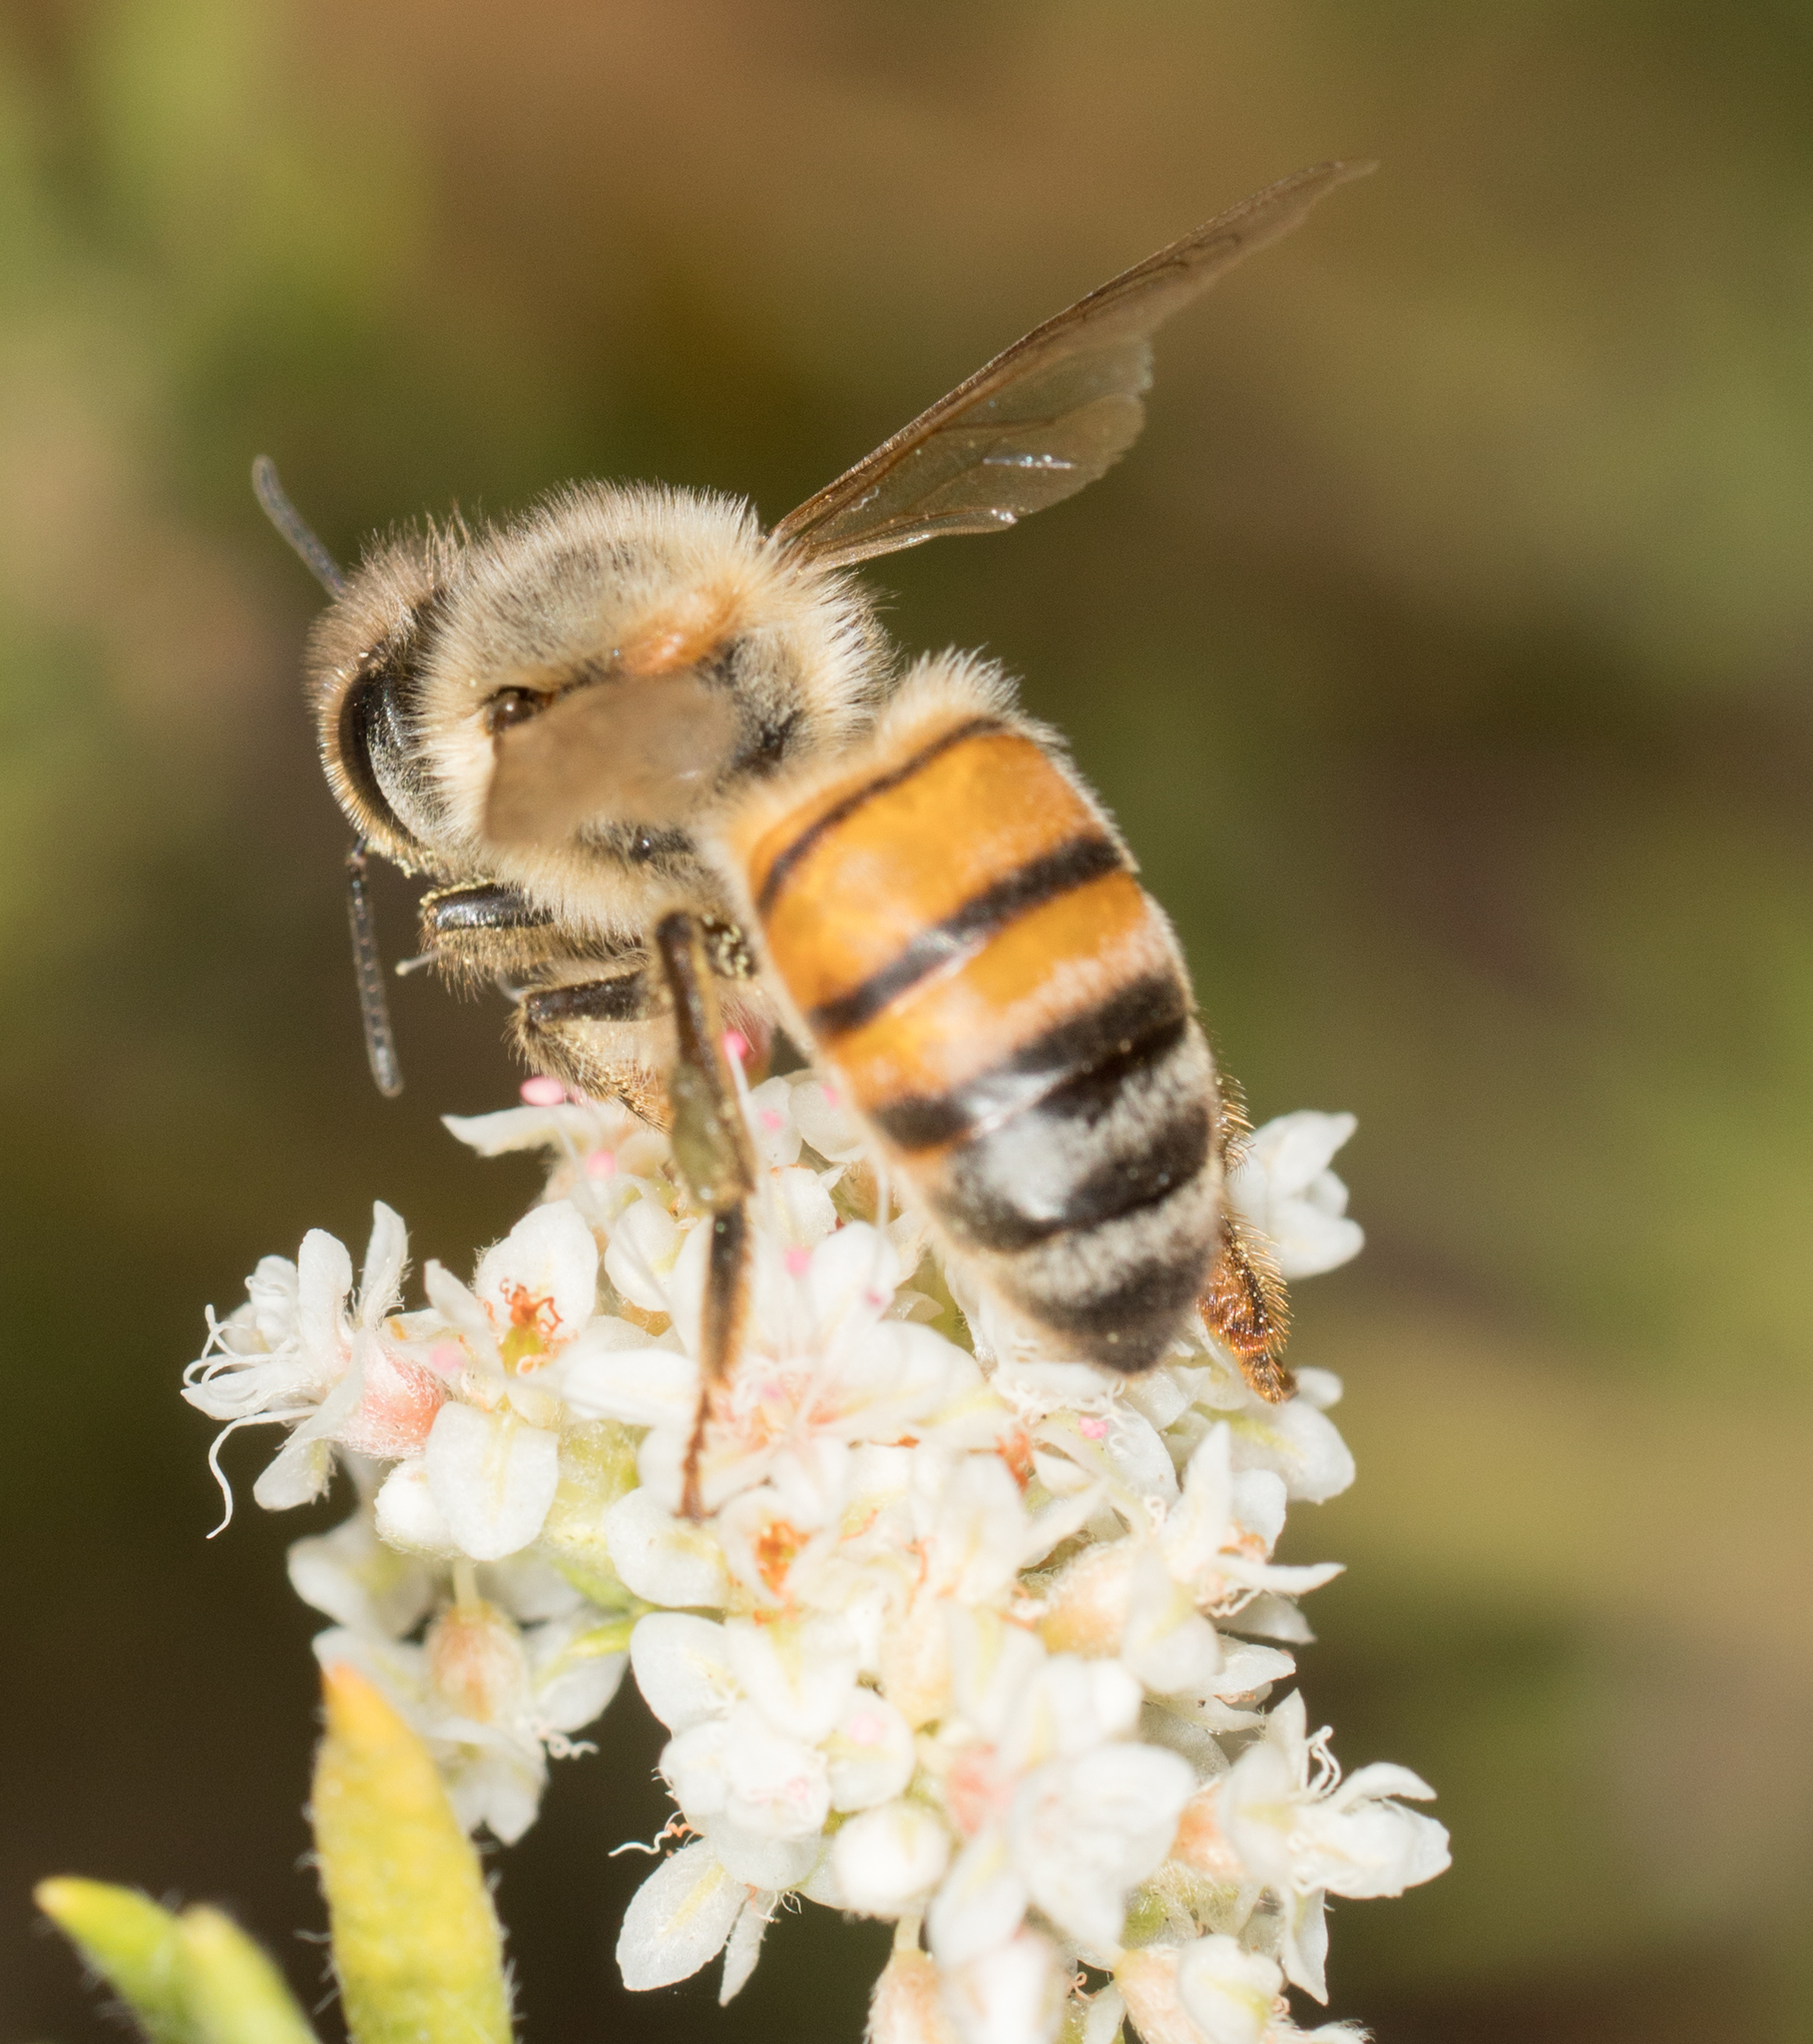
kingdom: Animalia
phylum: Arthropoda
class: Insecta
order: Hymenoptera
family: Apidae
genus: Apis
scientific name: Apis mellifera
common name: Honey bee
